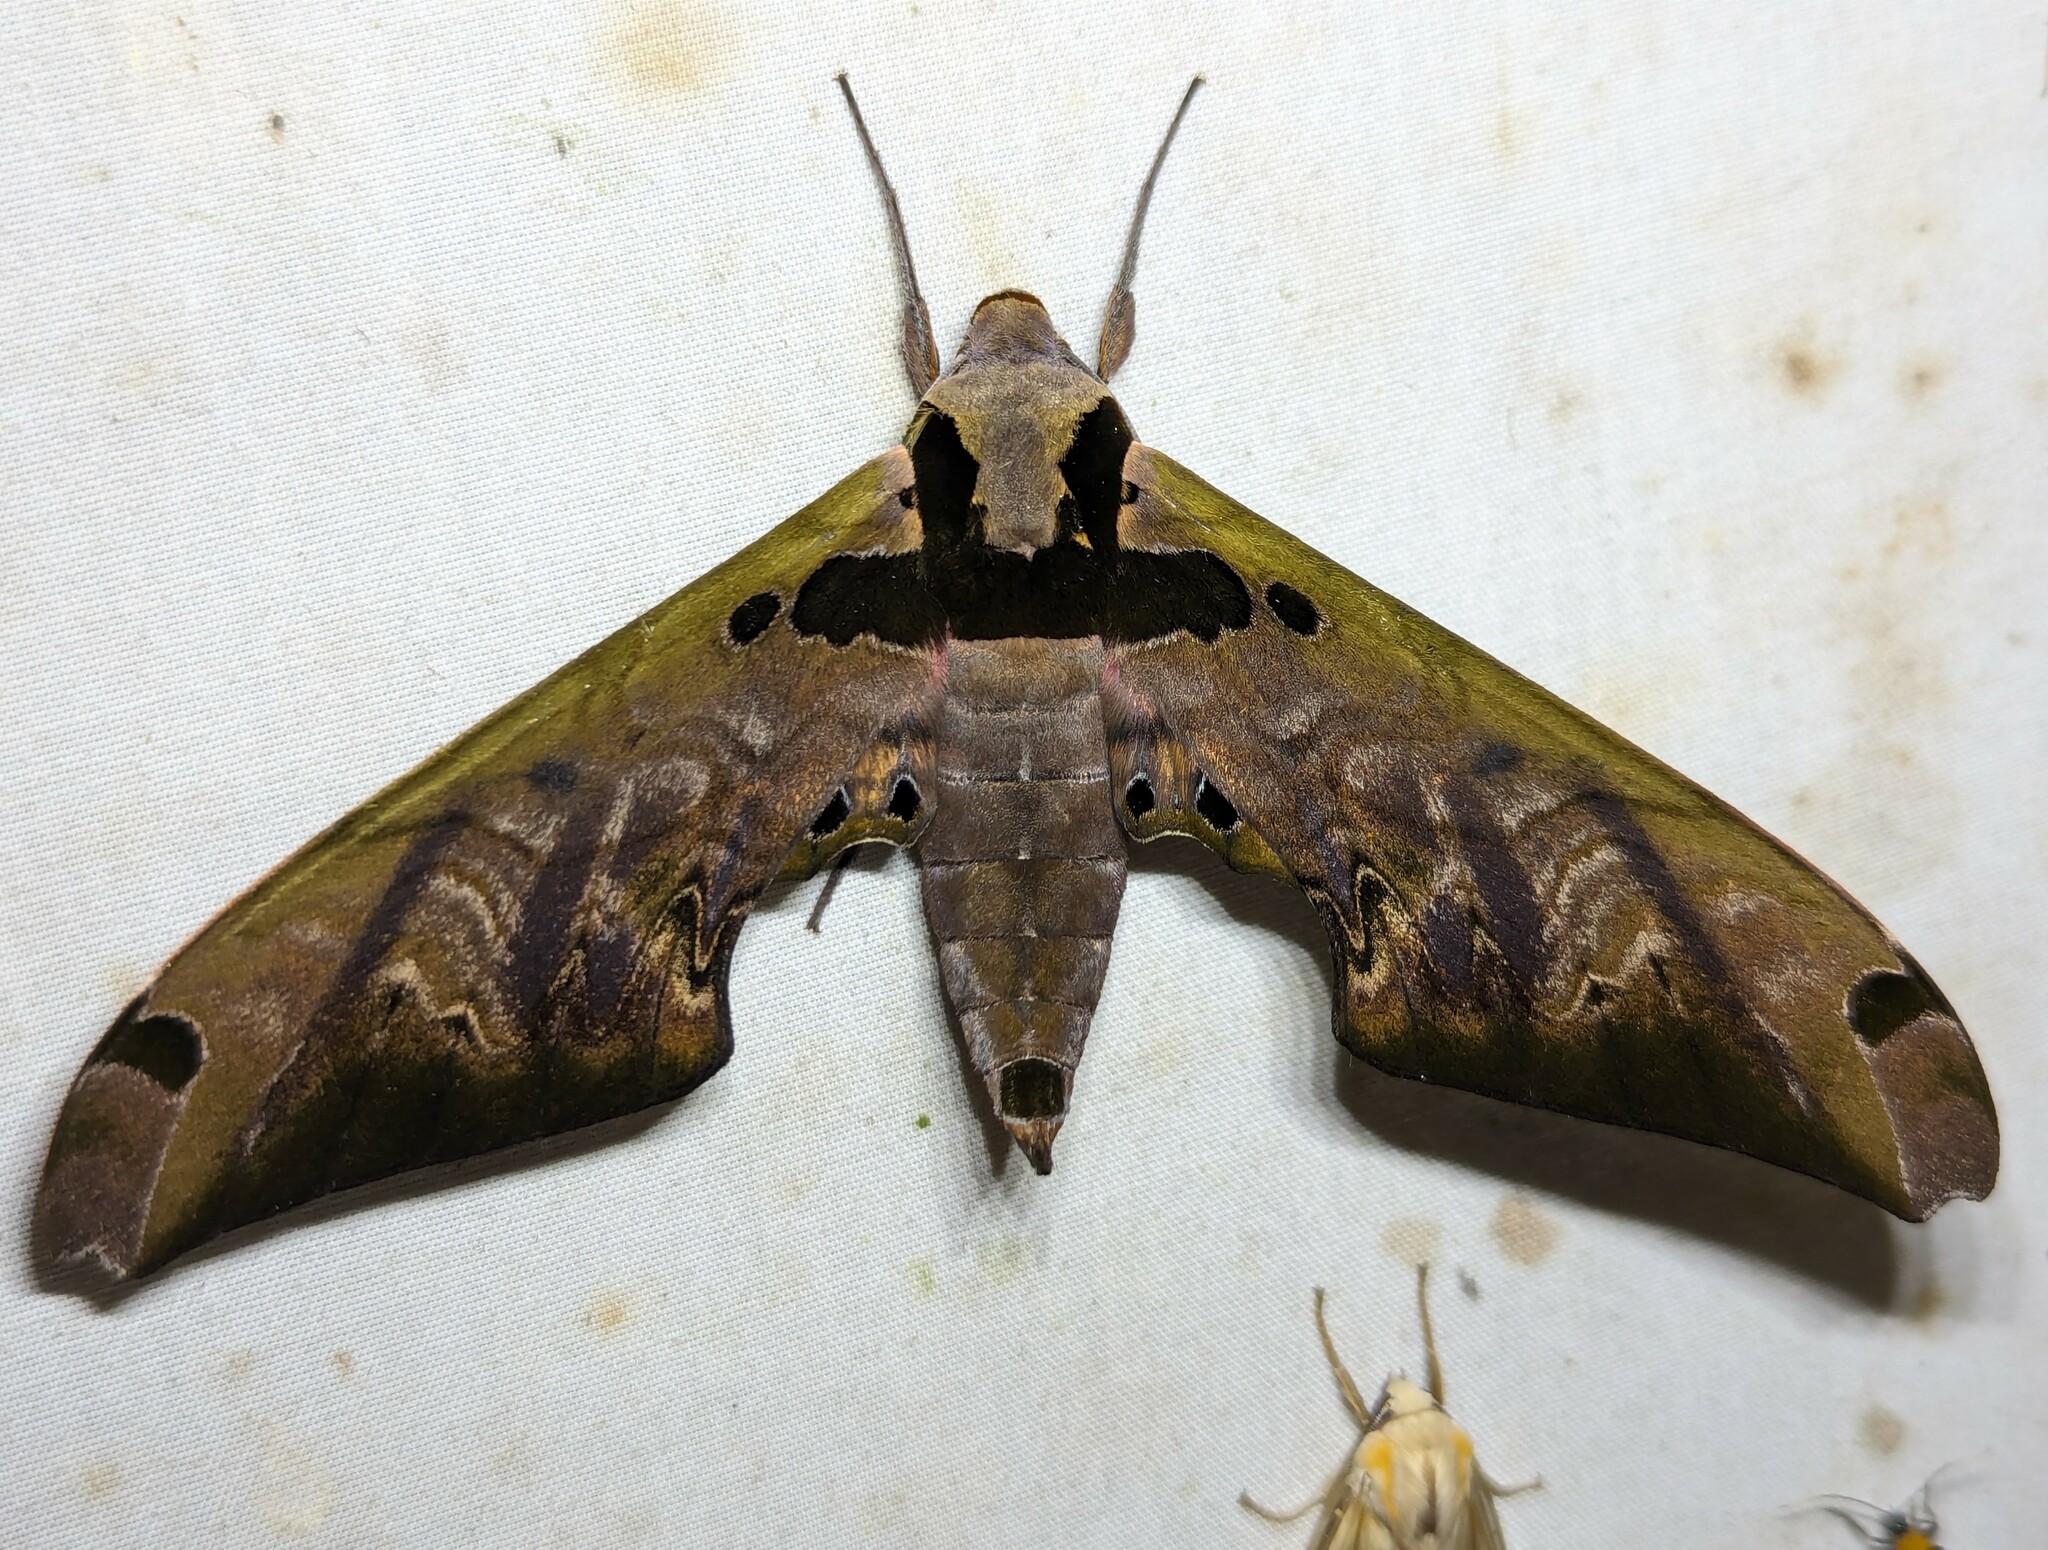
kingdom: Animalia
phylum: Arthropoda
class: Insecta
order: Lepidoptera
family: Sphingidae
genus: Adhemarius
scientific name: Adhemarius sexoculata
